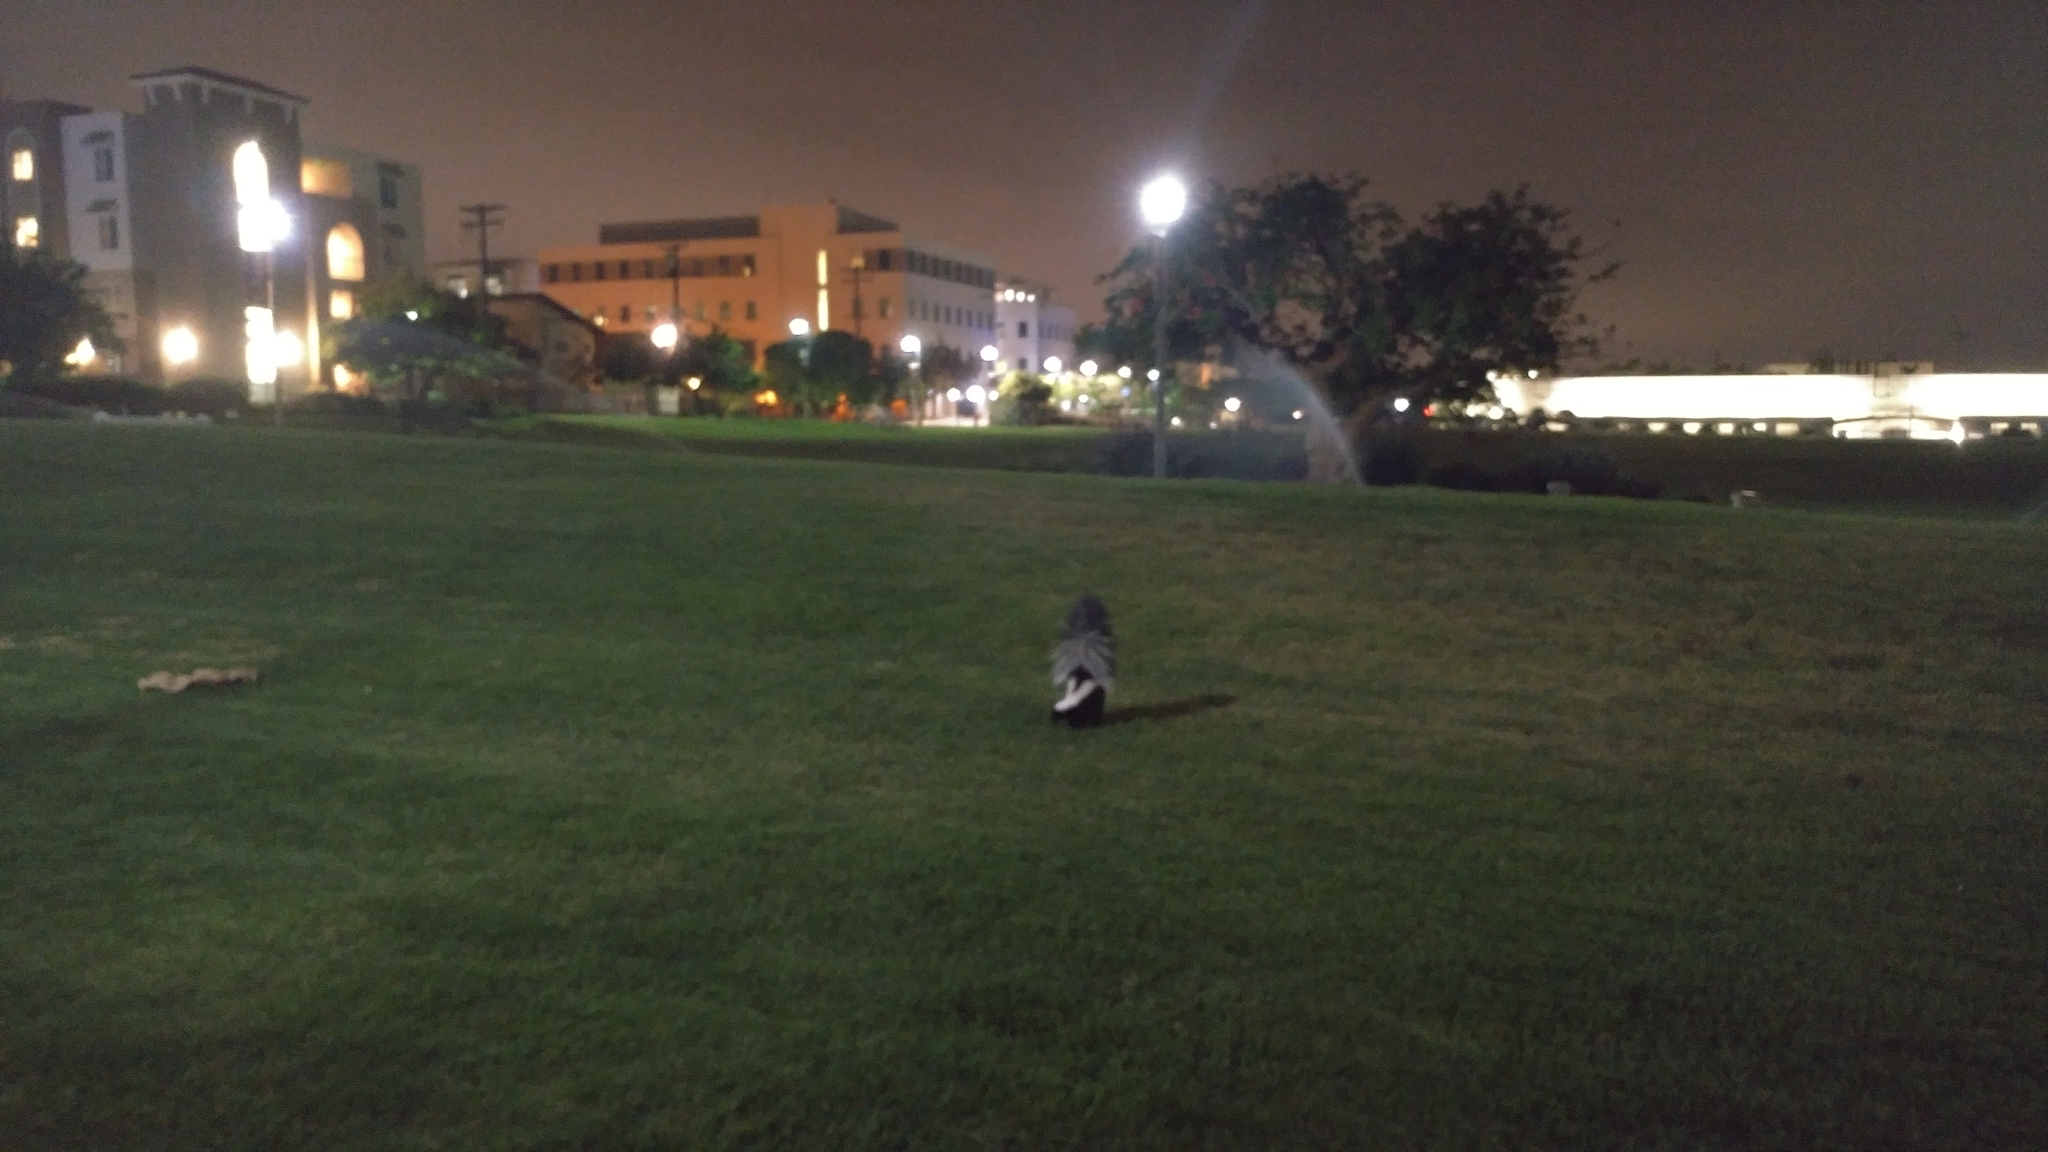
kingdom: Animalia
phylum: Chordata
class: Mammalia
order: Carnivora
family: Mephitidae
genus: Mephitis
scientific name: Mephitis mephitis
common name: Striped skunk
